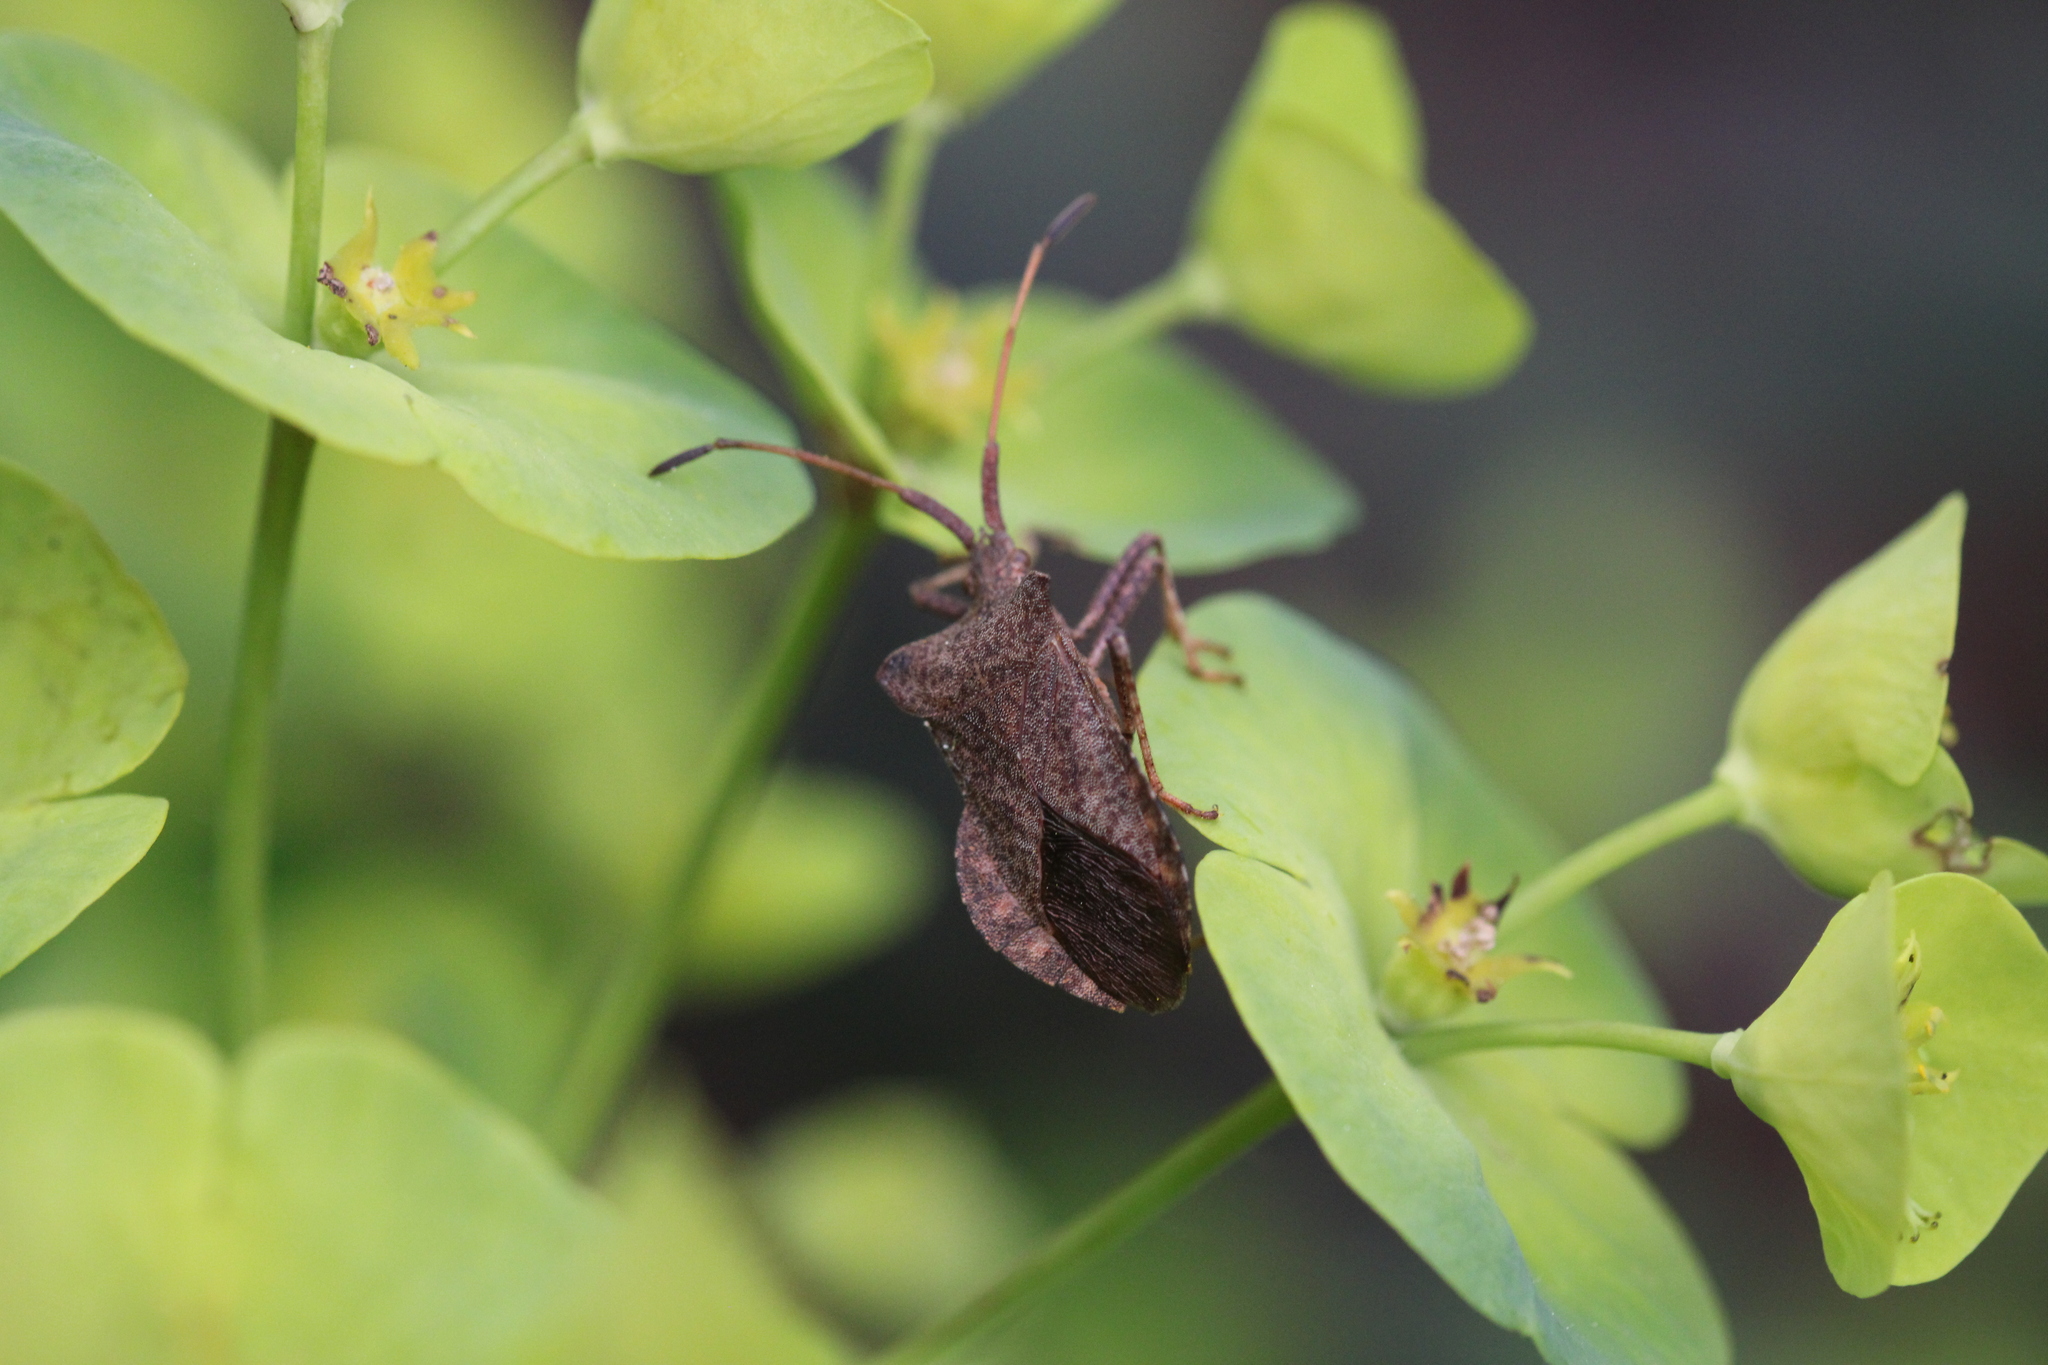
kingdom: Animalia
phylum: Arthropoda
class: Insecta
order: Hemiptera
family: Coreidae
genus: Coreus
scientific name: Coreus marginatus
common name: Dock bug
